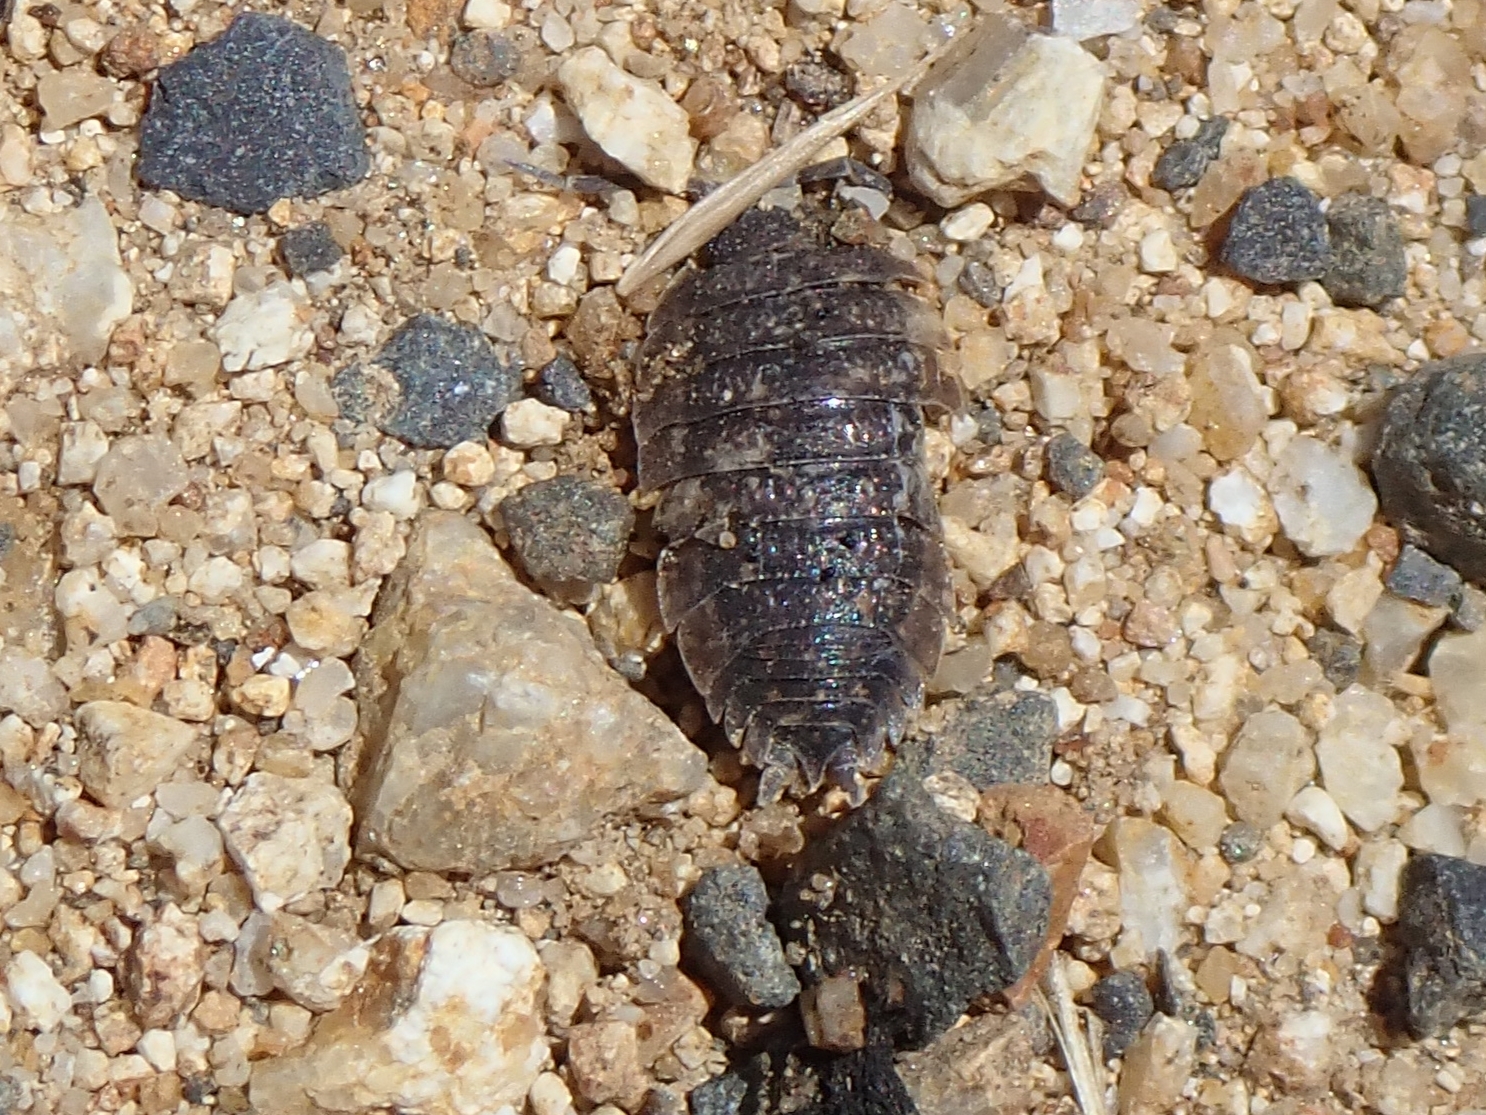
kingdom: Animalia
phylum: Arthropoda
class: Malacostraca
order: Isopoda
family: Porcellionidae
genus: Porcellio
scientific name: Porcellio scaber
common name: Common rough woodlouse
